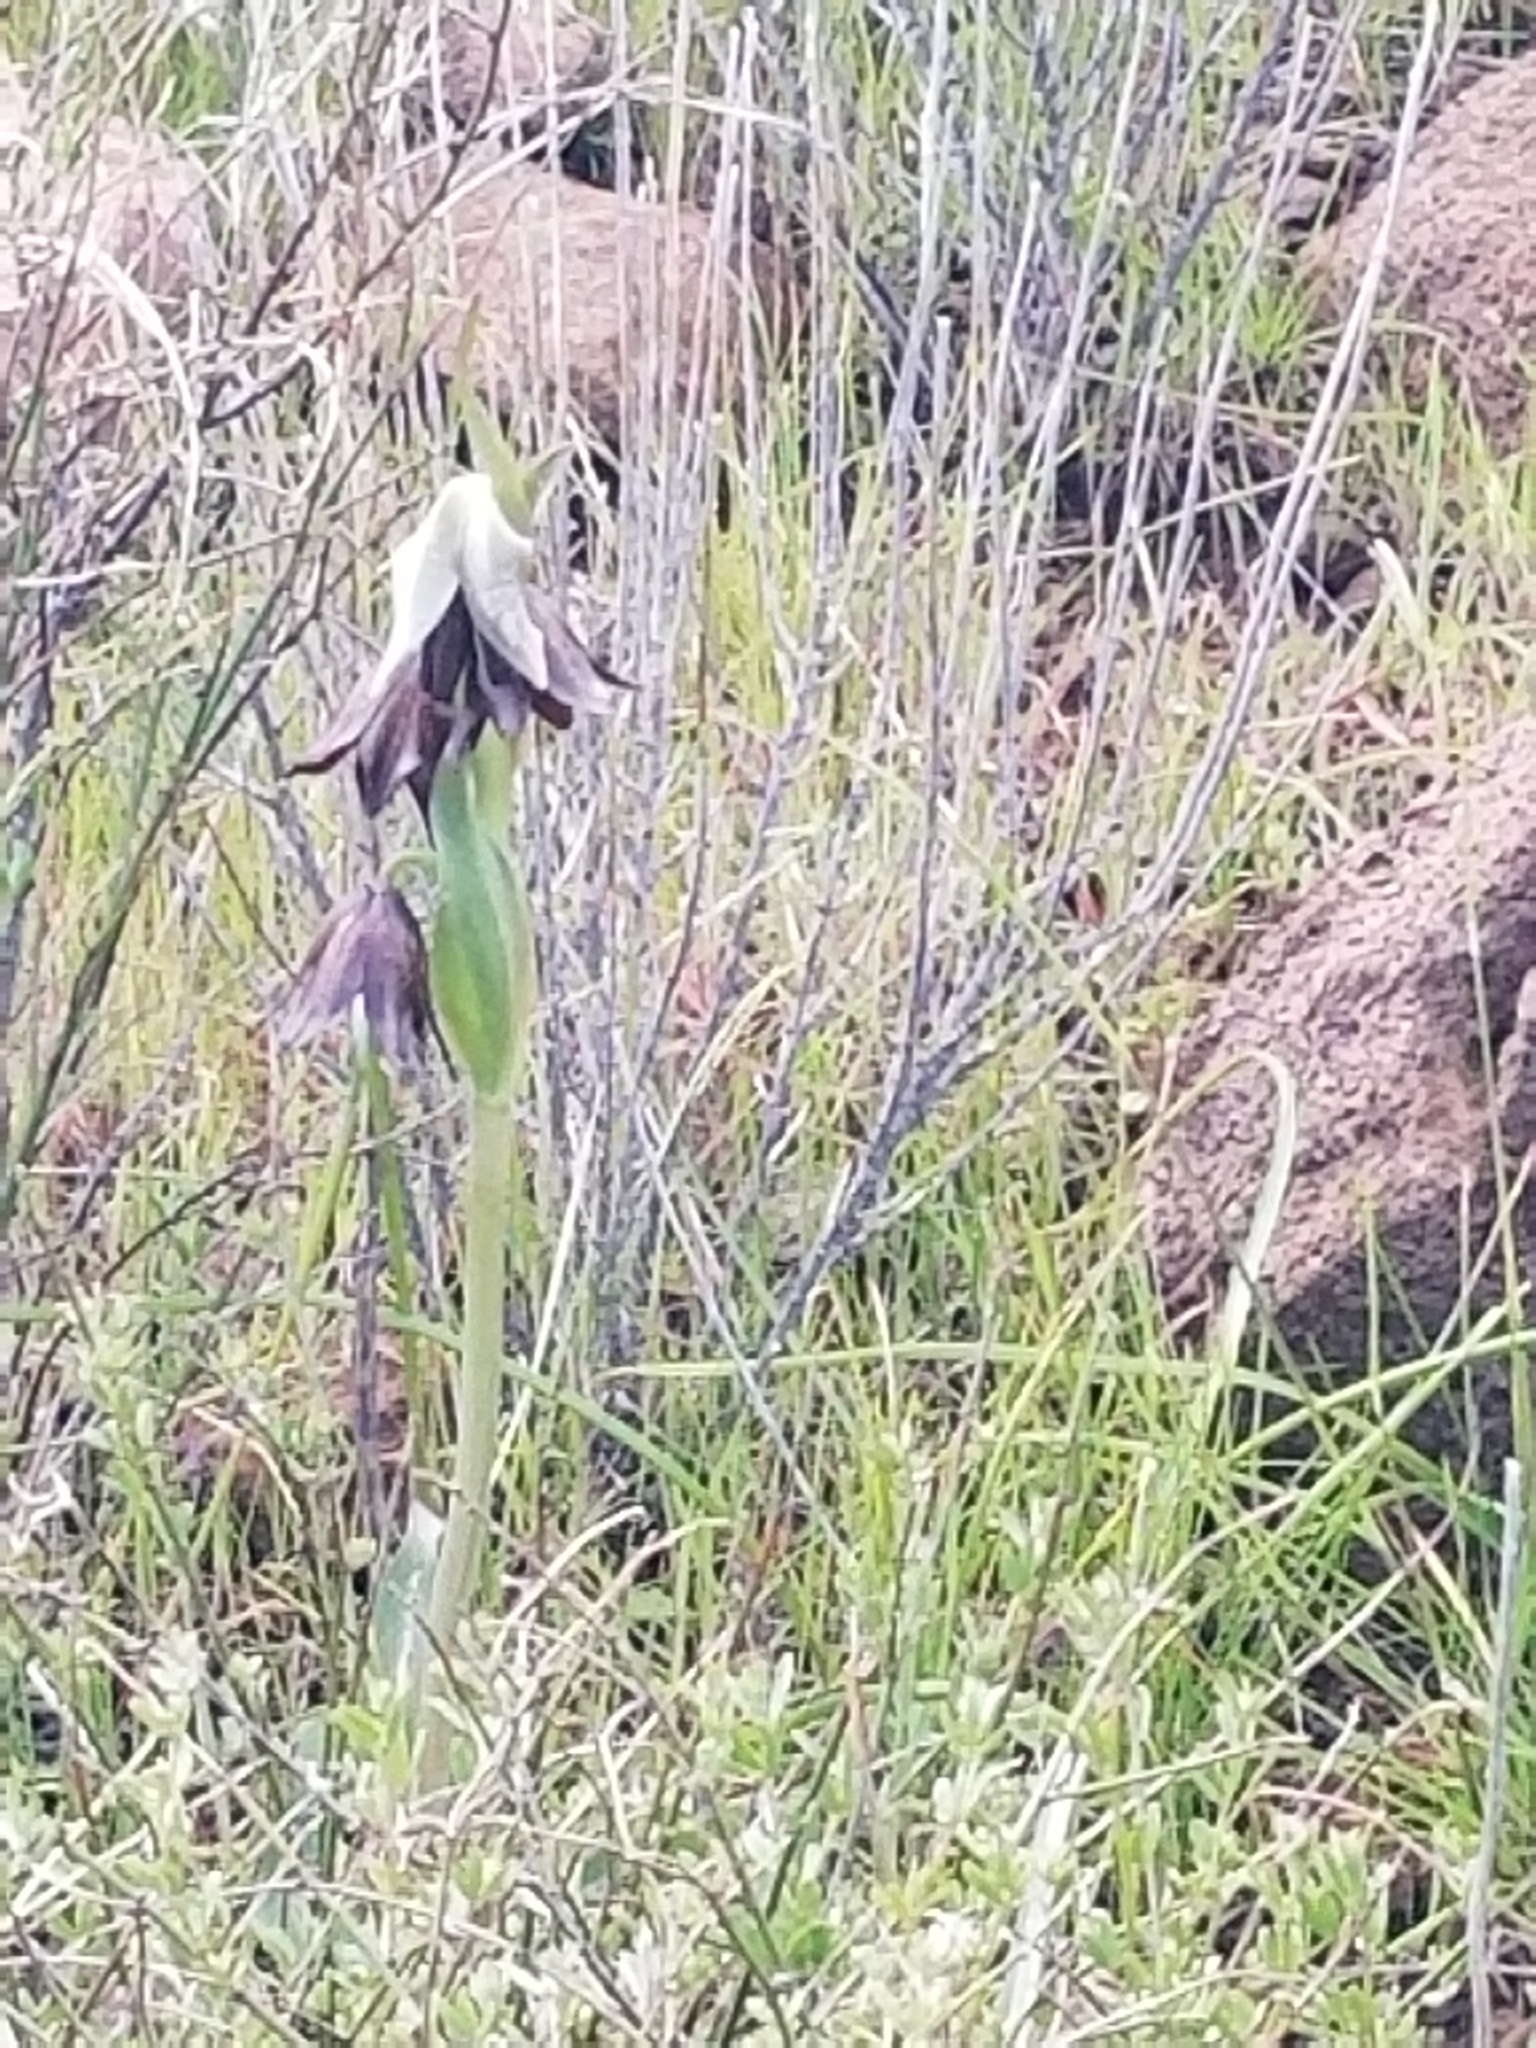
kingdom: Plantae
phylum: Tracheophyta
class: Liliopsida
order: Liliales
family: Liliaceae
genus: Fritillaria
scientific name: Fritillaria biflora
